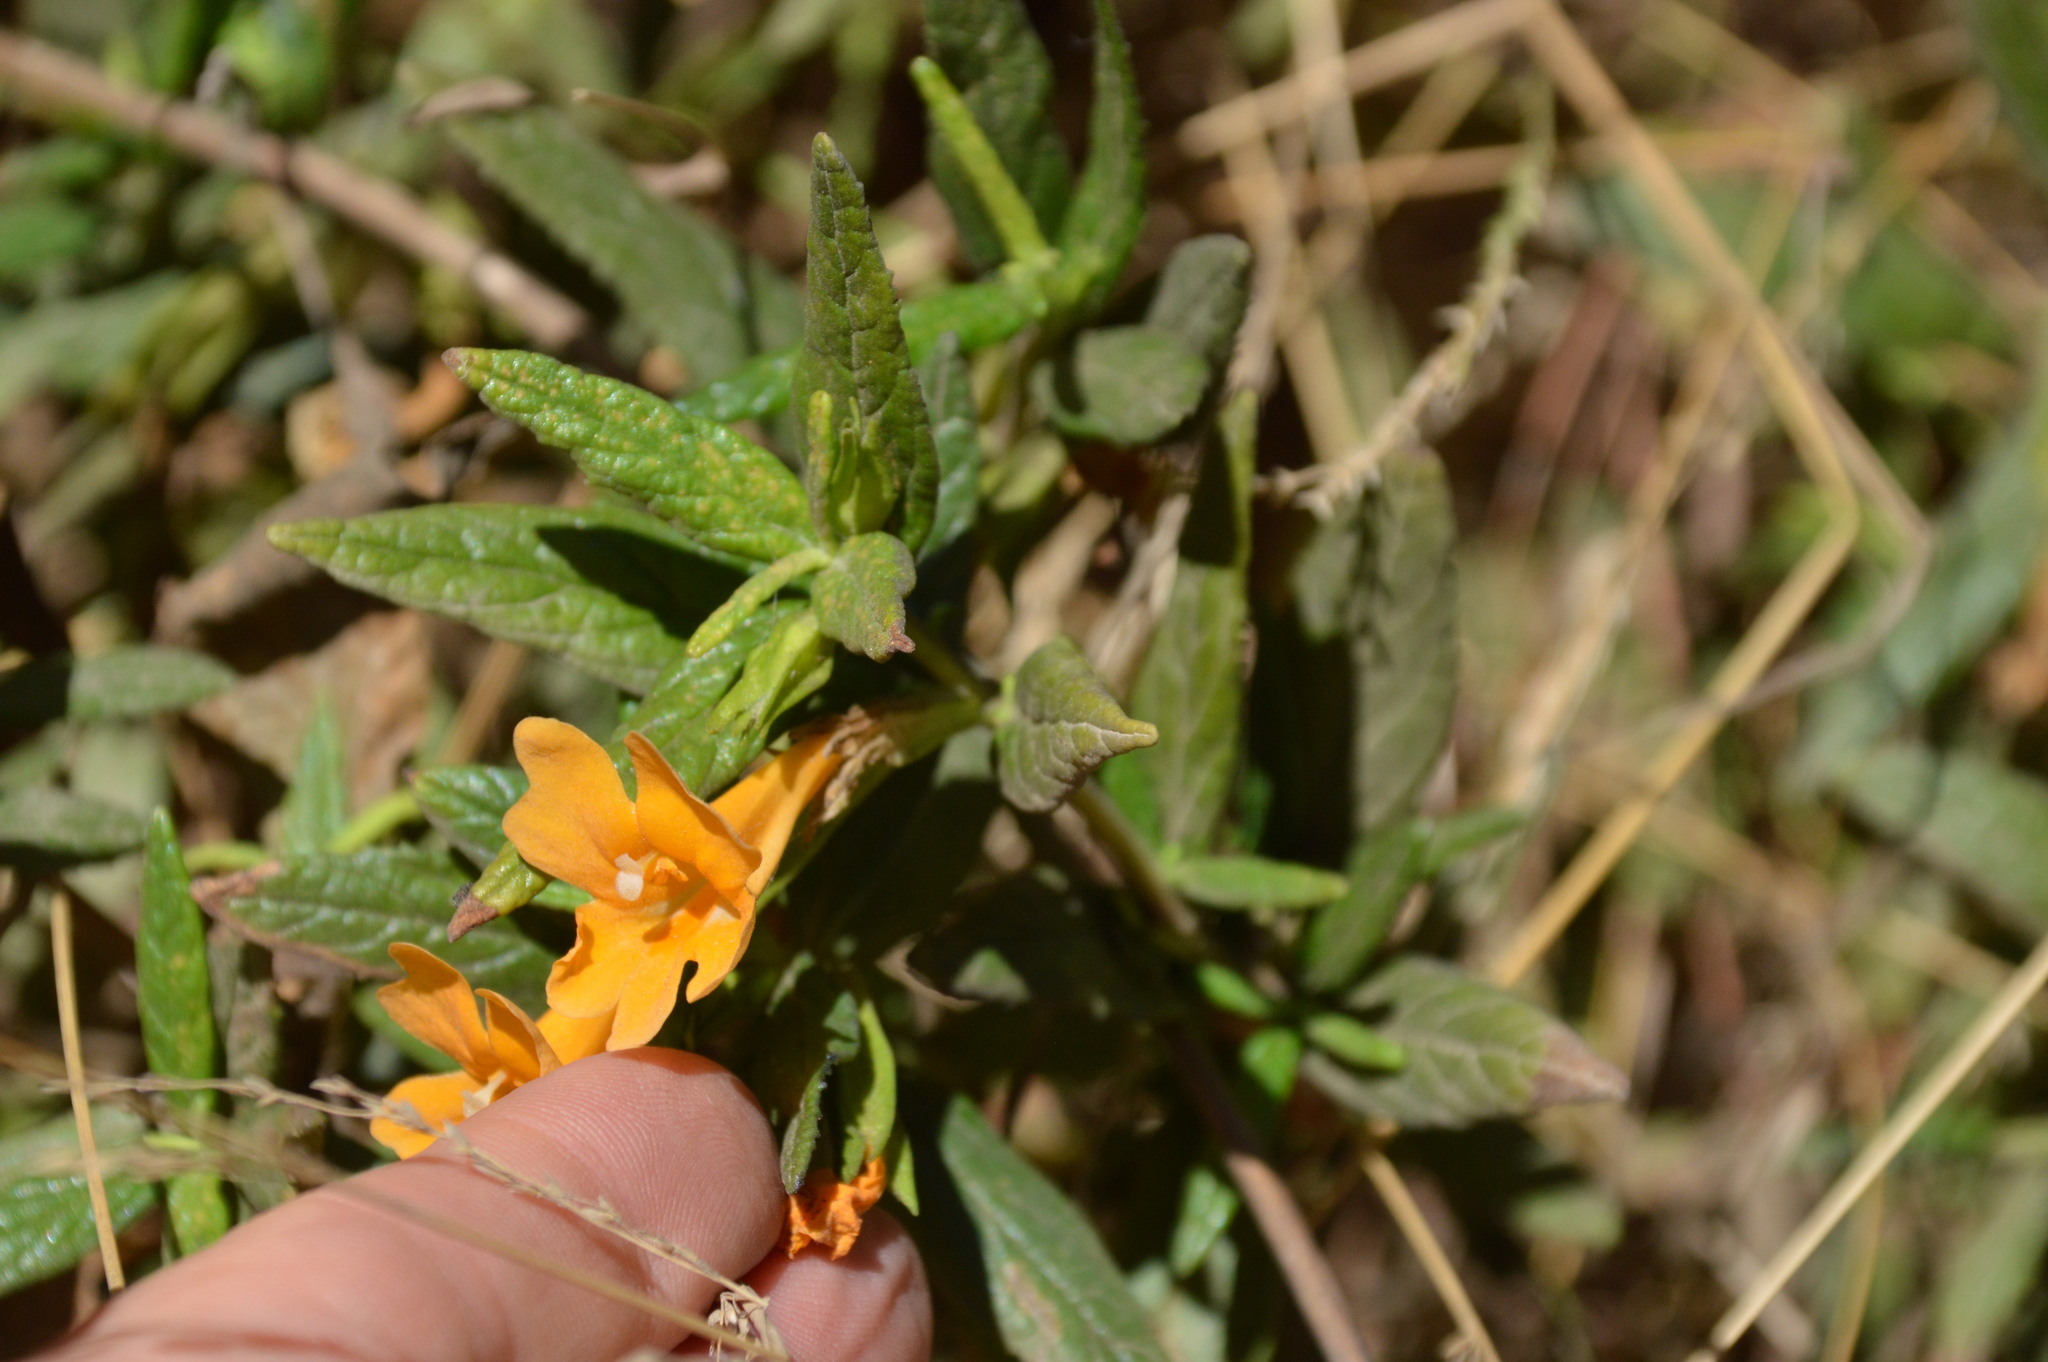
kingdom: Plantae
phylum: Tracheophyta
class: Magnoliopsida
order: Lamiales
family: Phrymaceae
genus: Diplacus
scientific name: Diplacus aurantiacus
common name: Bush monkey-flower
